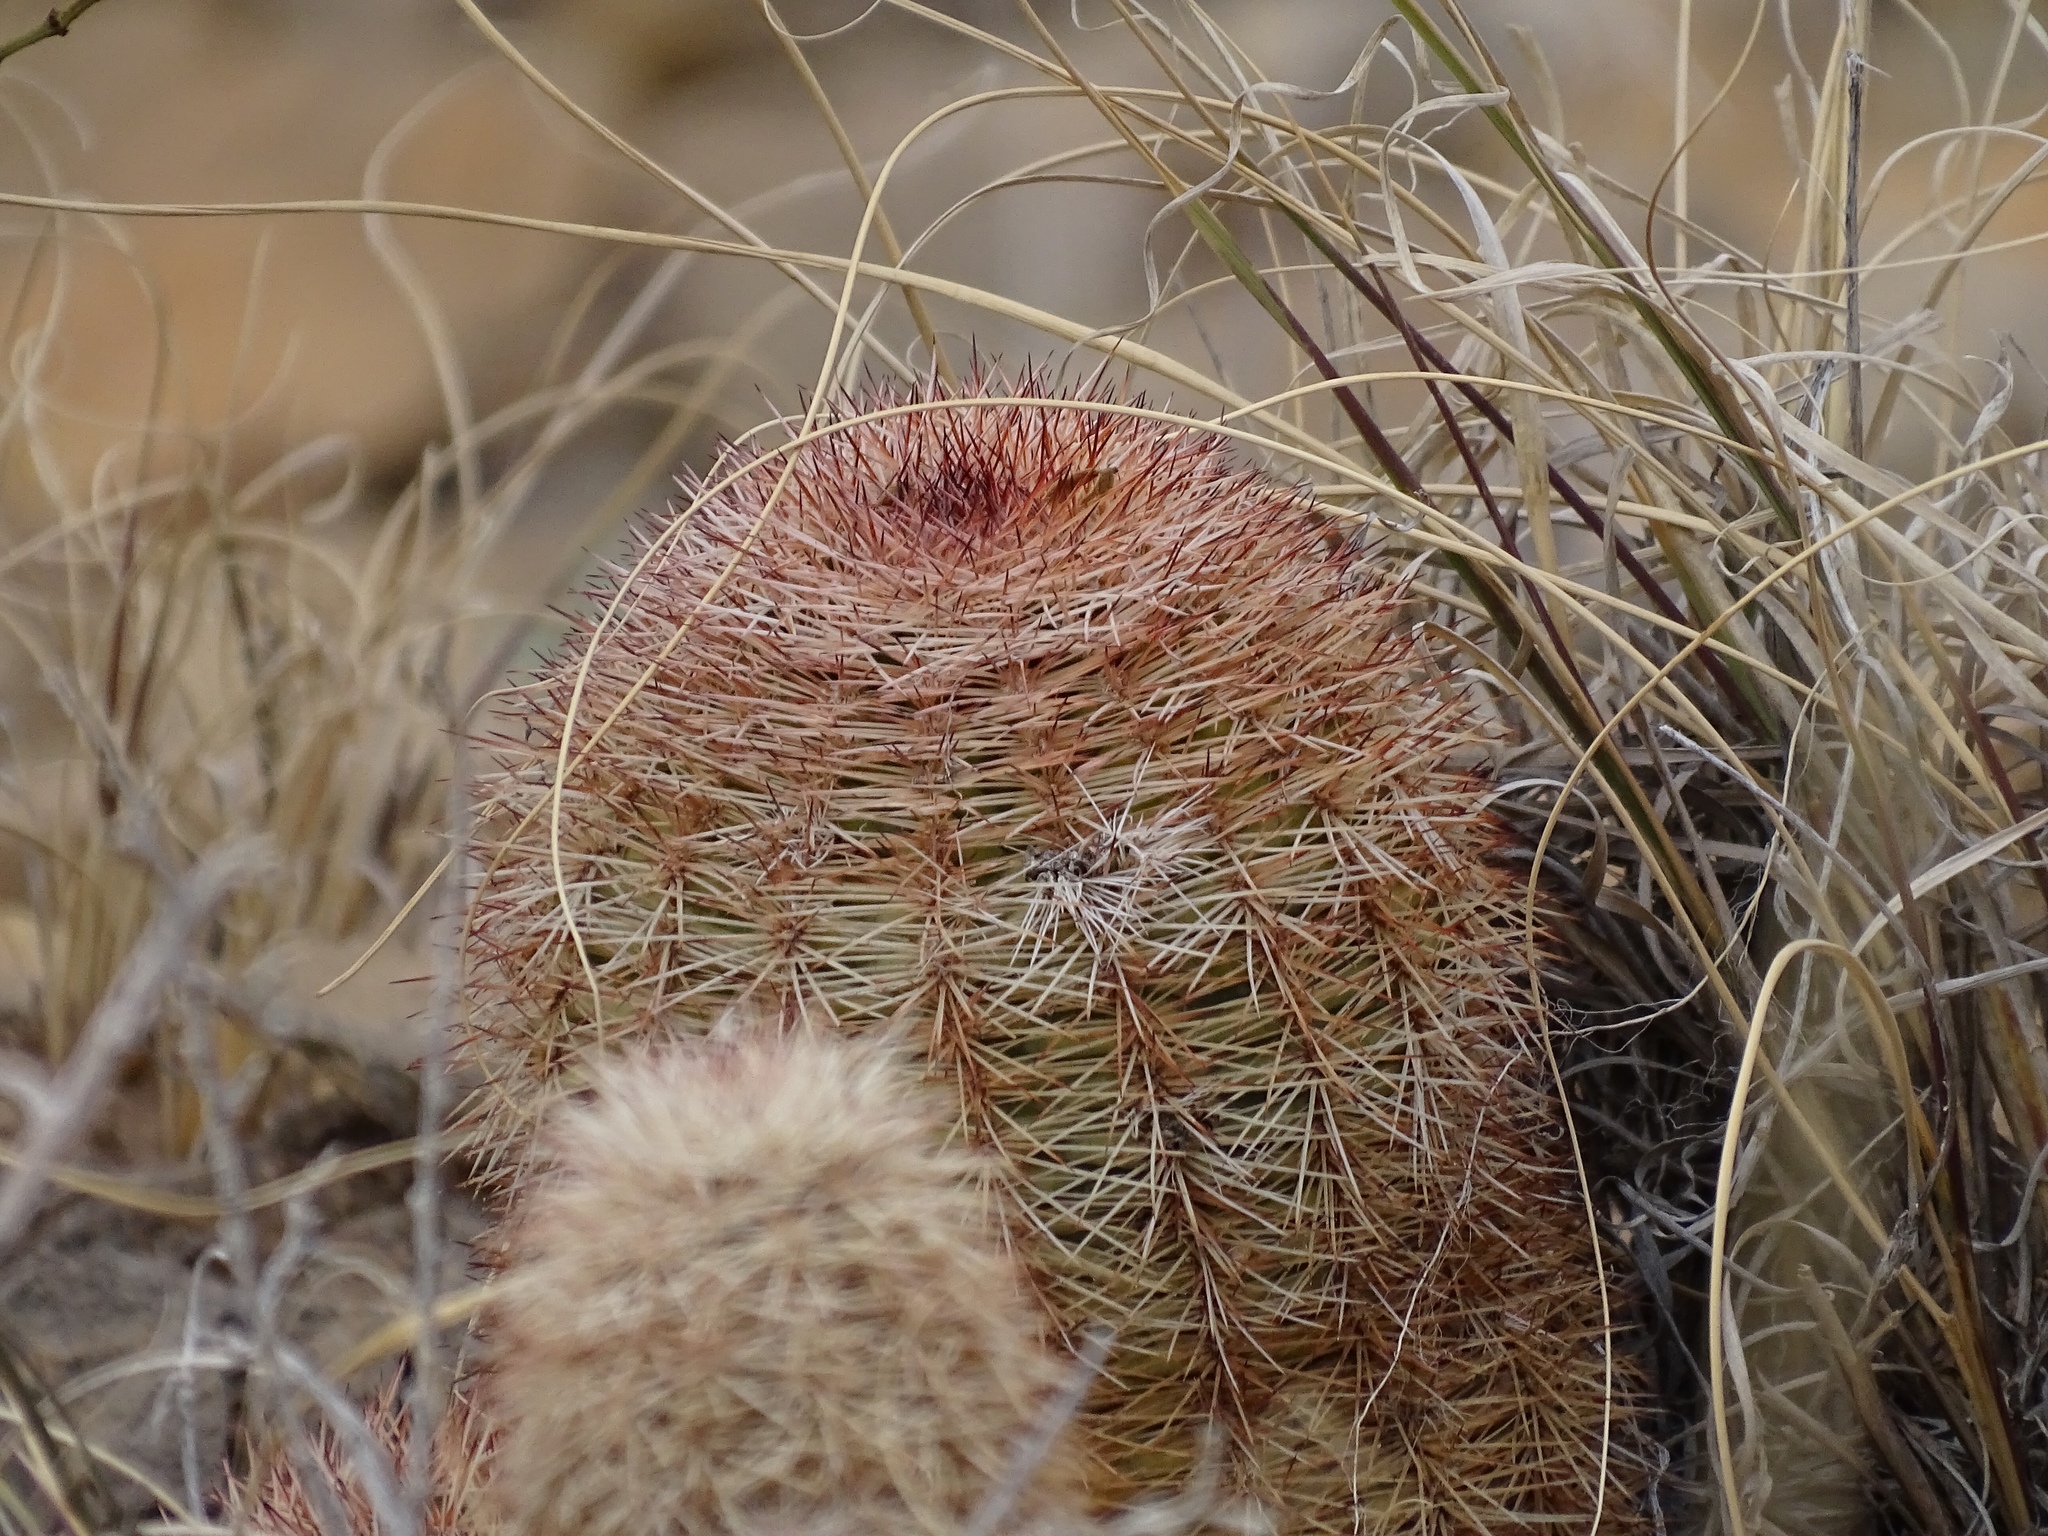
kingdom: Plantae
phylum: Tracheophyta
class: Magnoliopsida
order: Caryophyllales
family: Cactaceae
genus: Echinocereus
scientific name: Echinocereus dasyacanthus
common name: Spiny hedgehog cactus
